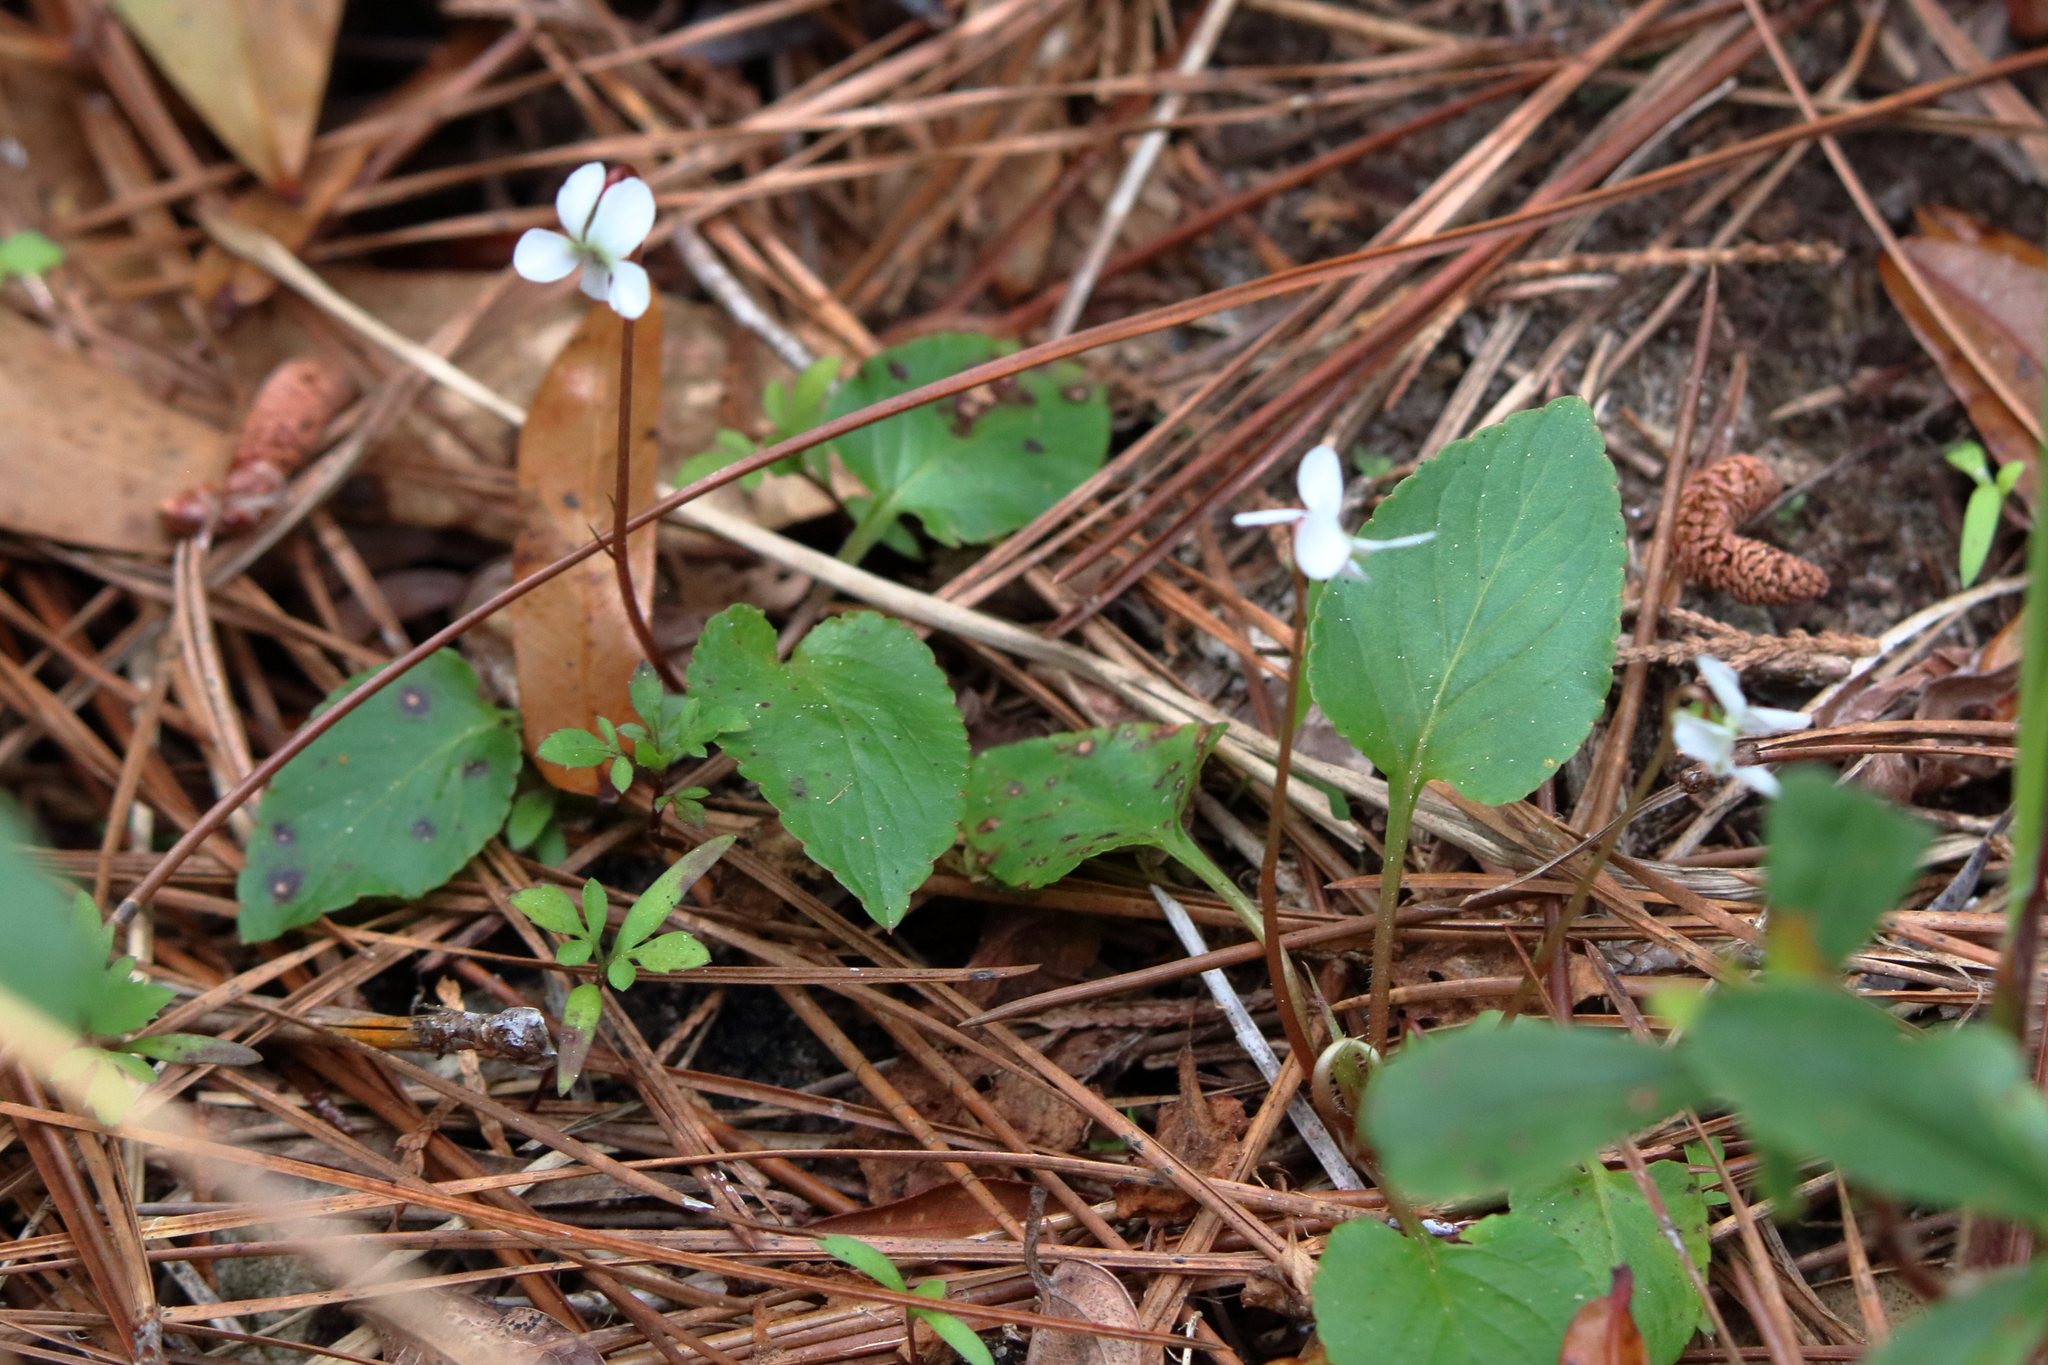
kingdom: Plantae
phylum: Tracheophyta
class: Magnoliopsida
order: Malpighiales
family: Violaceae
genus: Viola
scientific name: Viola primulifolia
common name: Primrose-leaf violet
